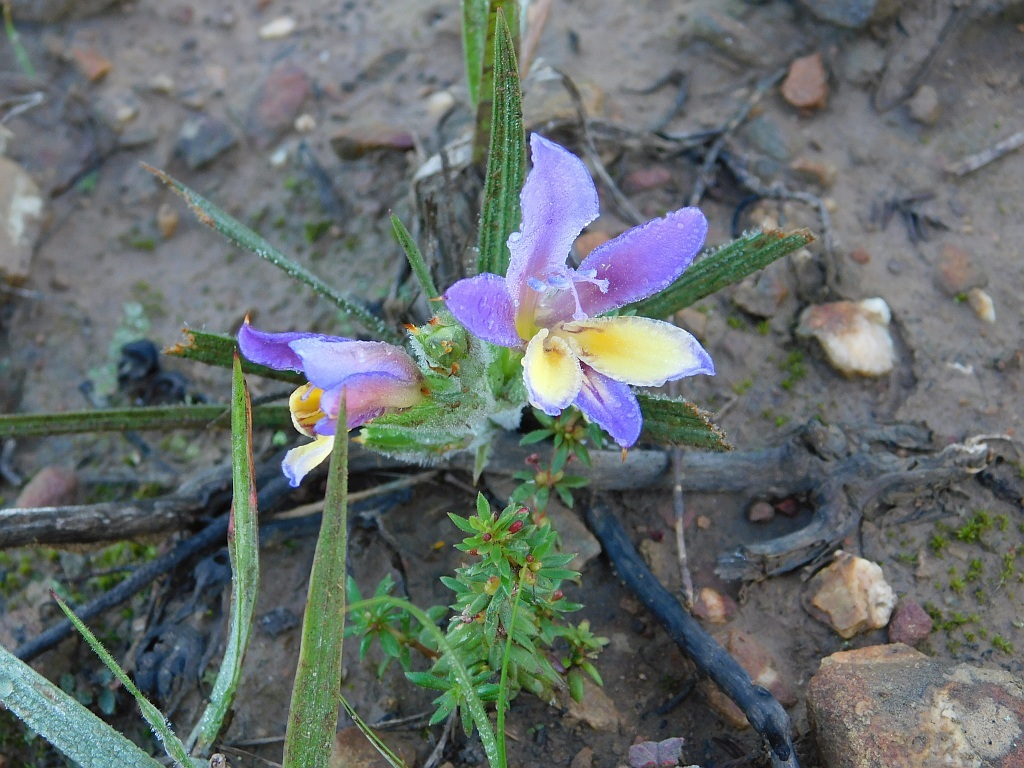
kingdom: Plantae
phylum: Tracheophyta
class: Liliopsida
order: Asparagales
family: Iridaceae
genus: Babiana
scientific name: Babiana patula
